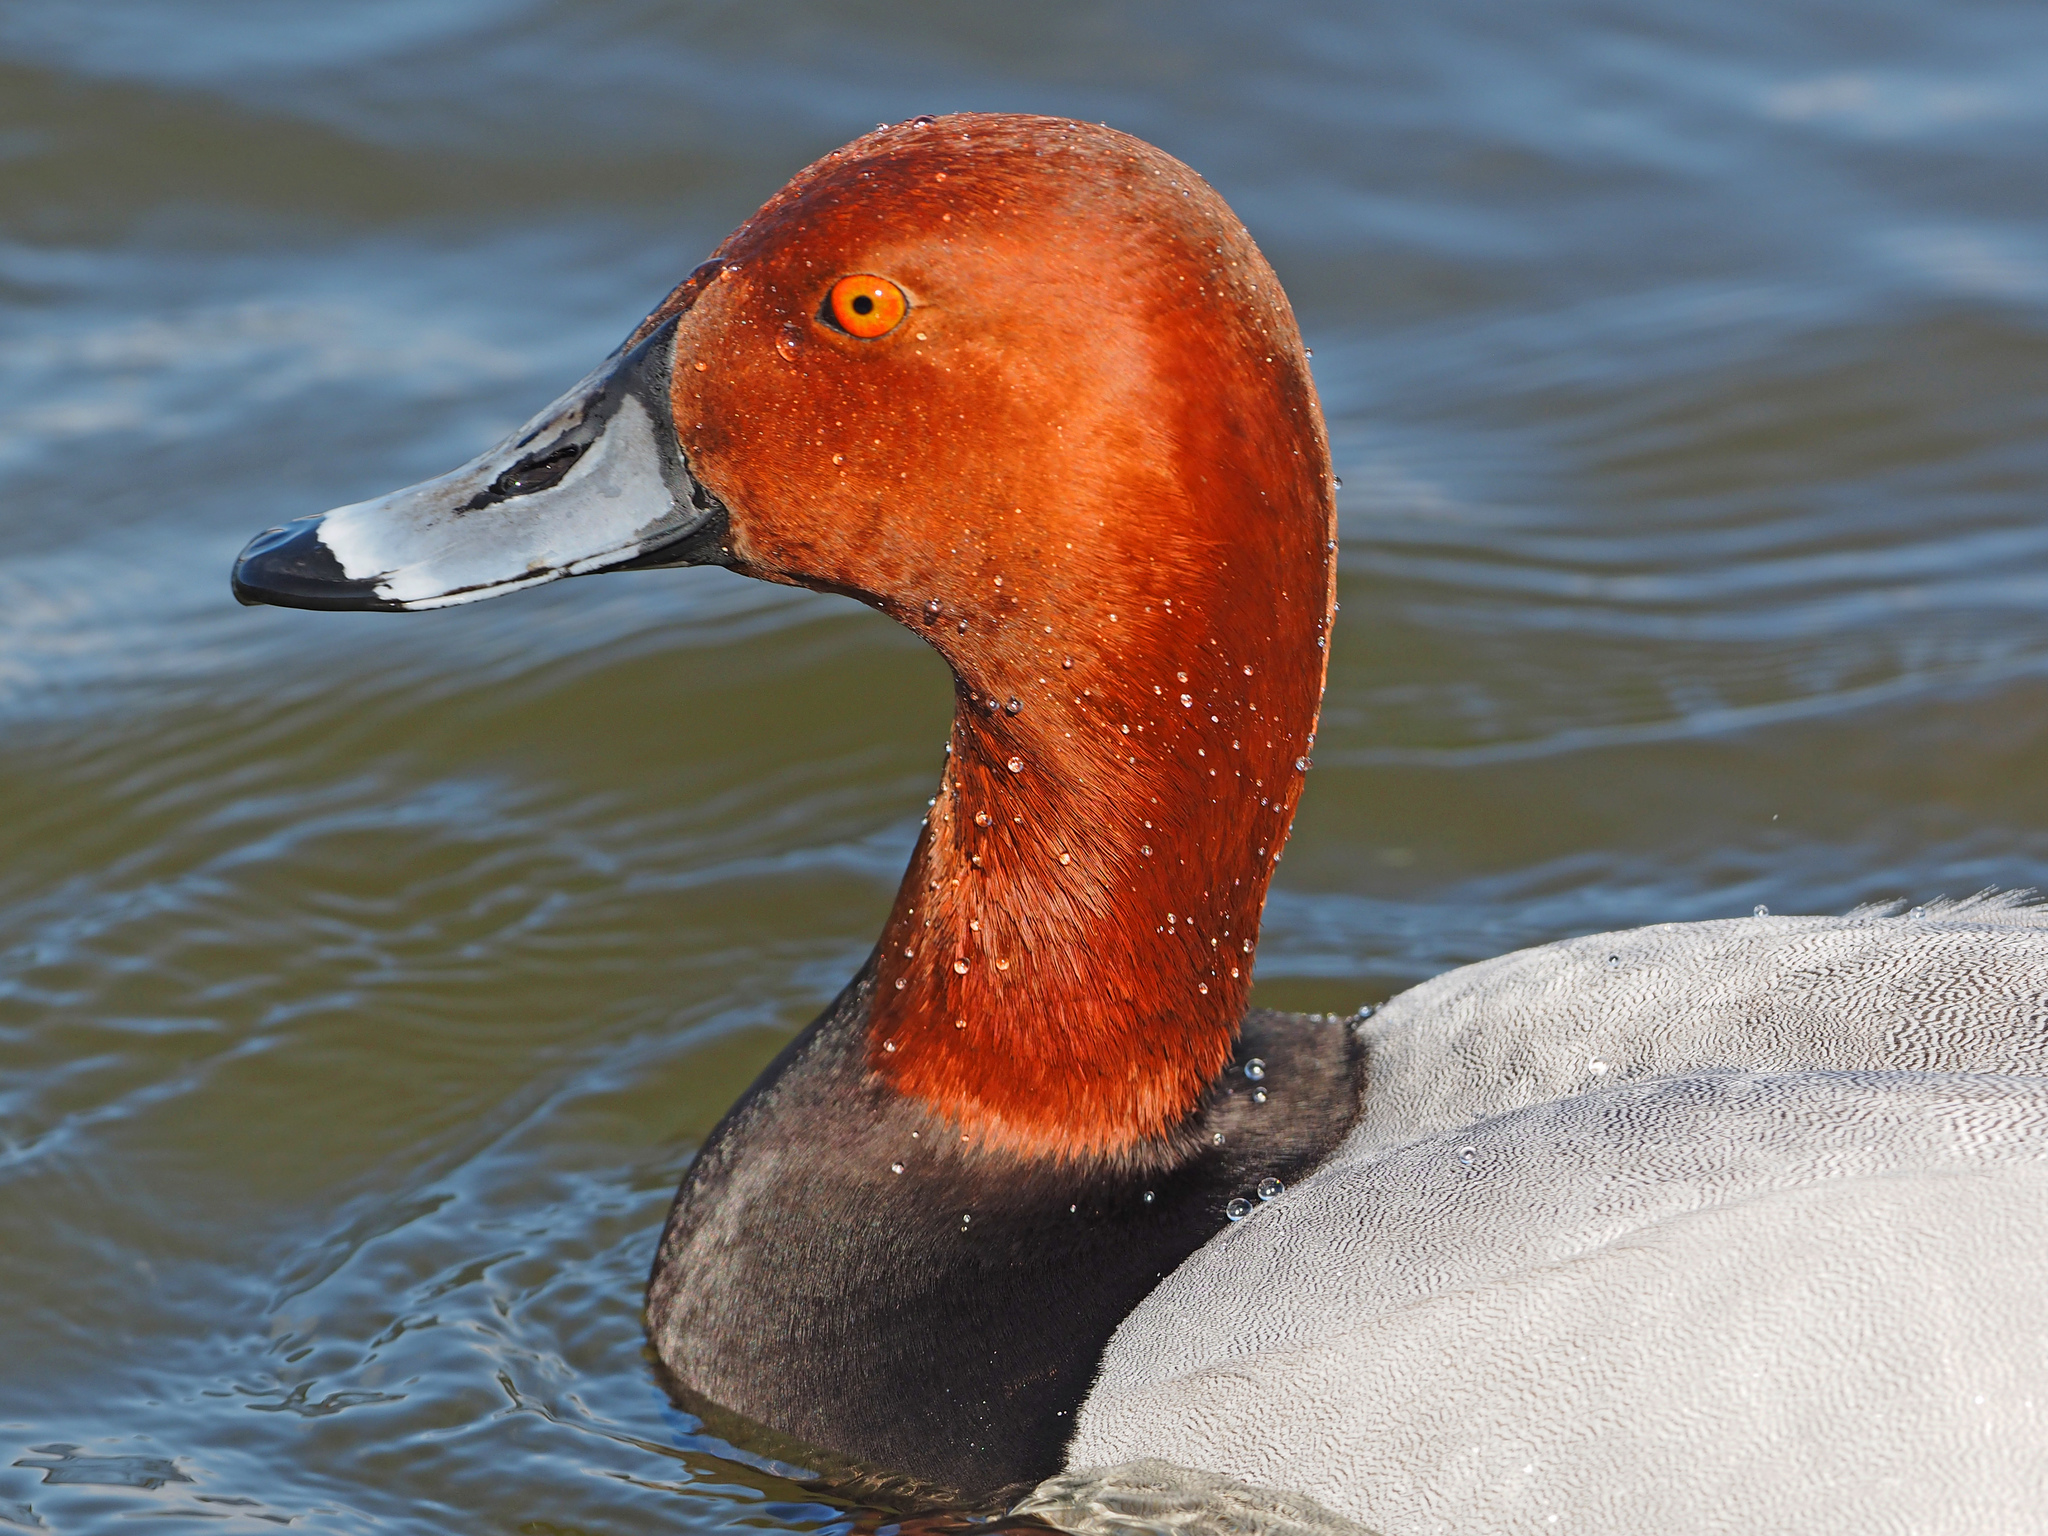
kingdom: Animalia
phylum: Chordata
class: Aves
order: Anseriformes
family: Anatidae
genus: Aythya
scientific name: Aythya
